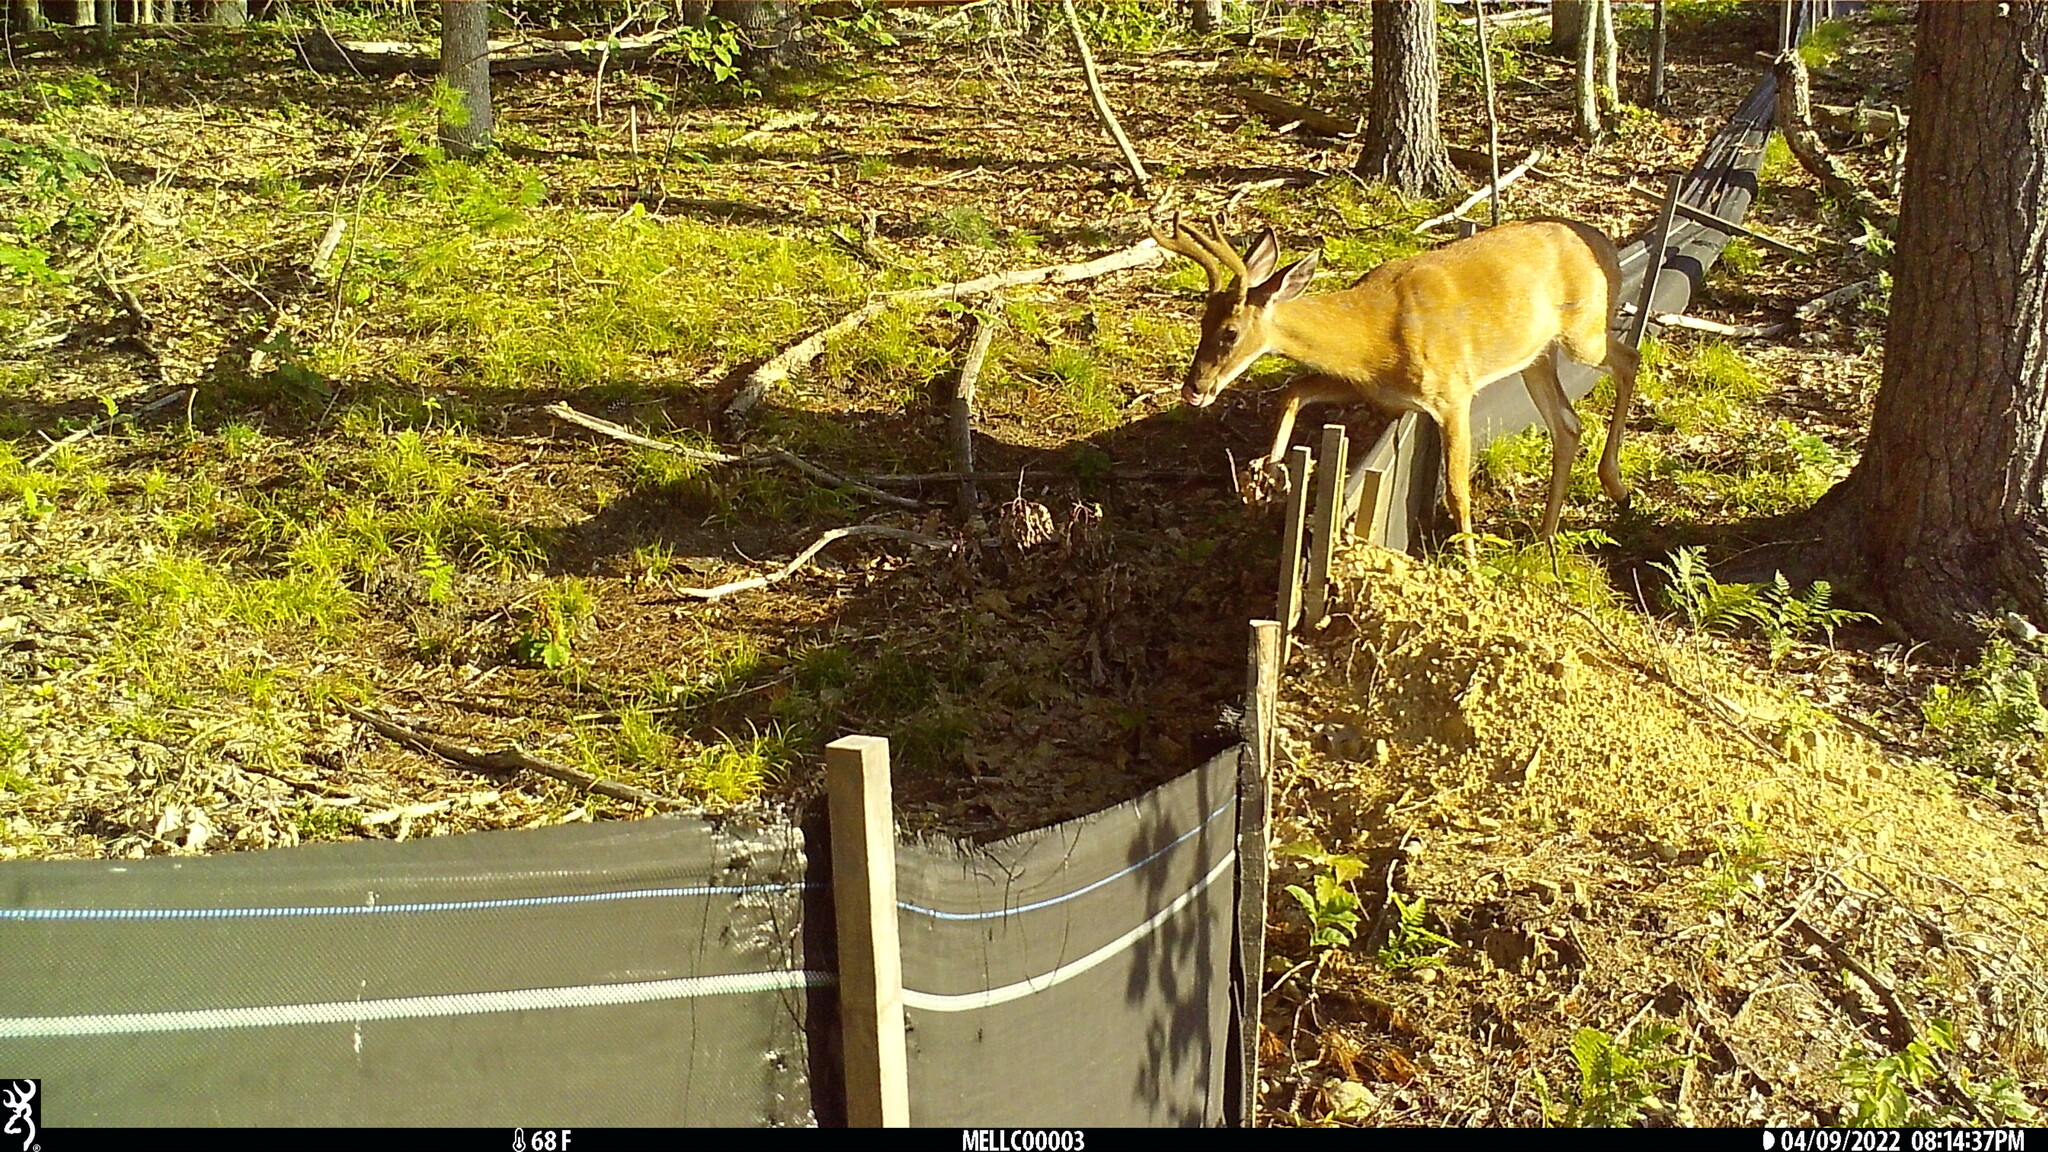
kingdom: Animalia
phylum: Chordata
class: Mammalia
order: Artiodactyla
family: Cervidae
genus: Odocoileus
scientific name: Odocoileus virginianus
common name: White-tailed deer
